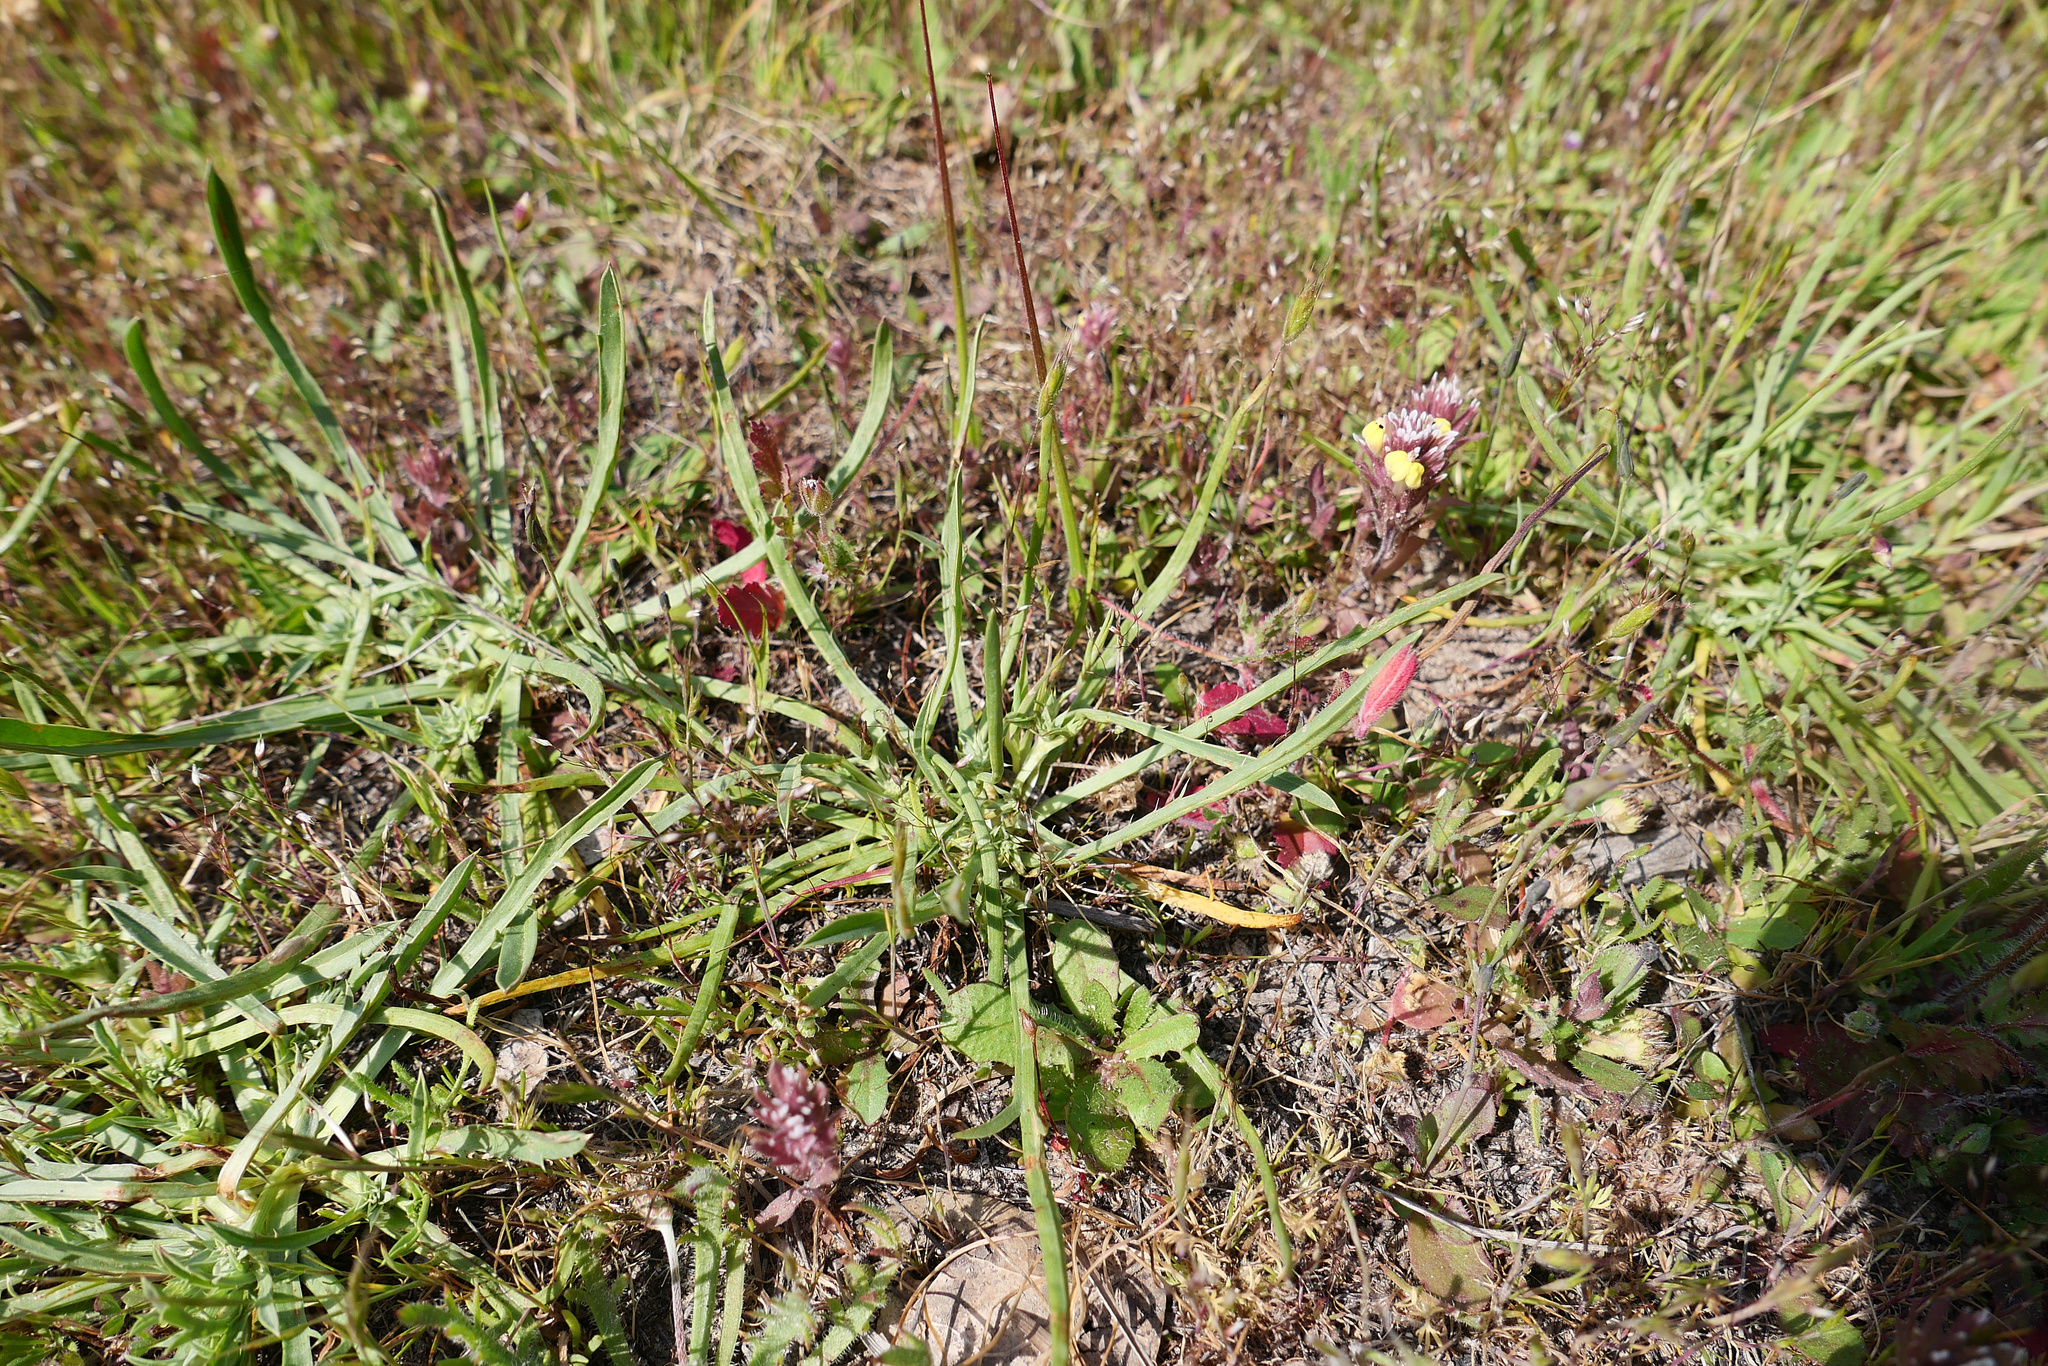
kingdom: Plantae
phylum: Tracheophyta
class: Magnoliopsida
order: Apiales
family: Apiaceae
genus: Eryngium
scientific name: Eryngium montereyense
